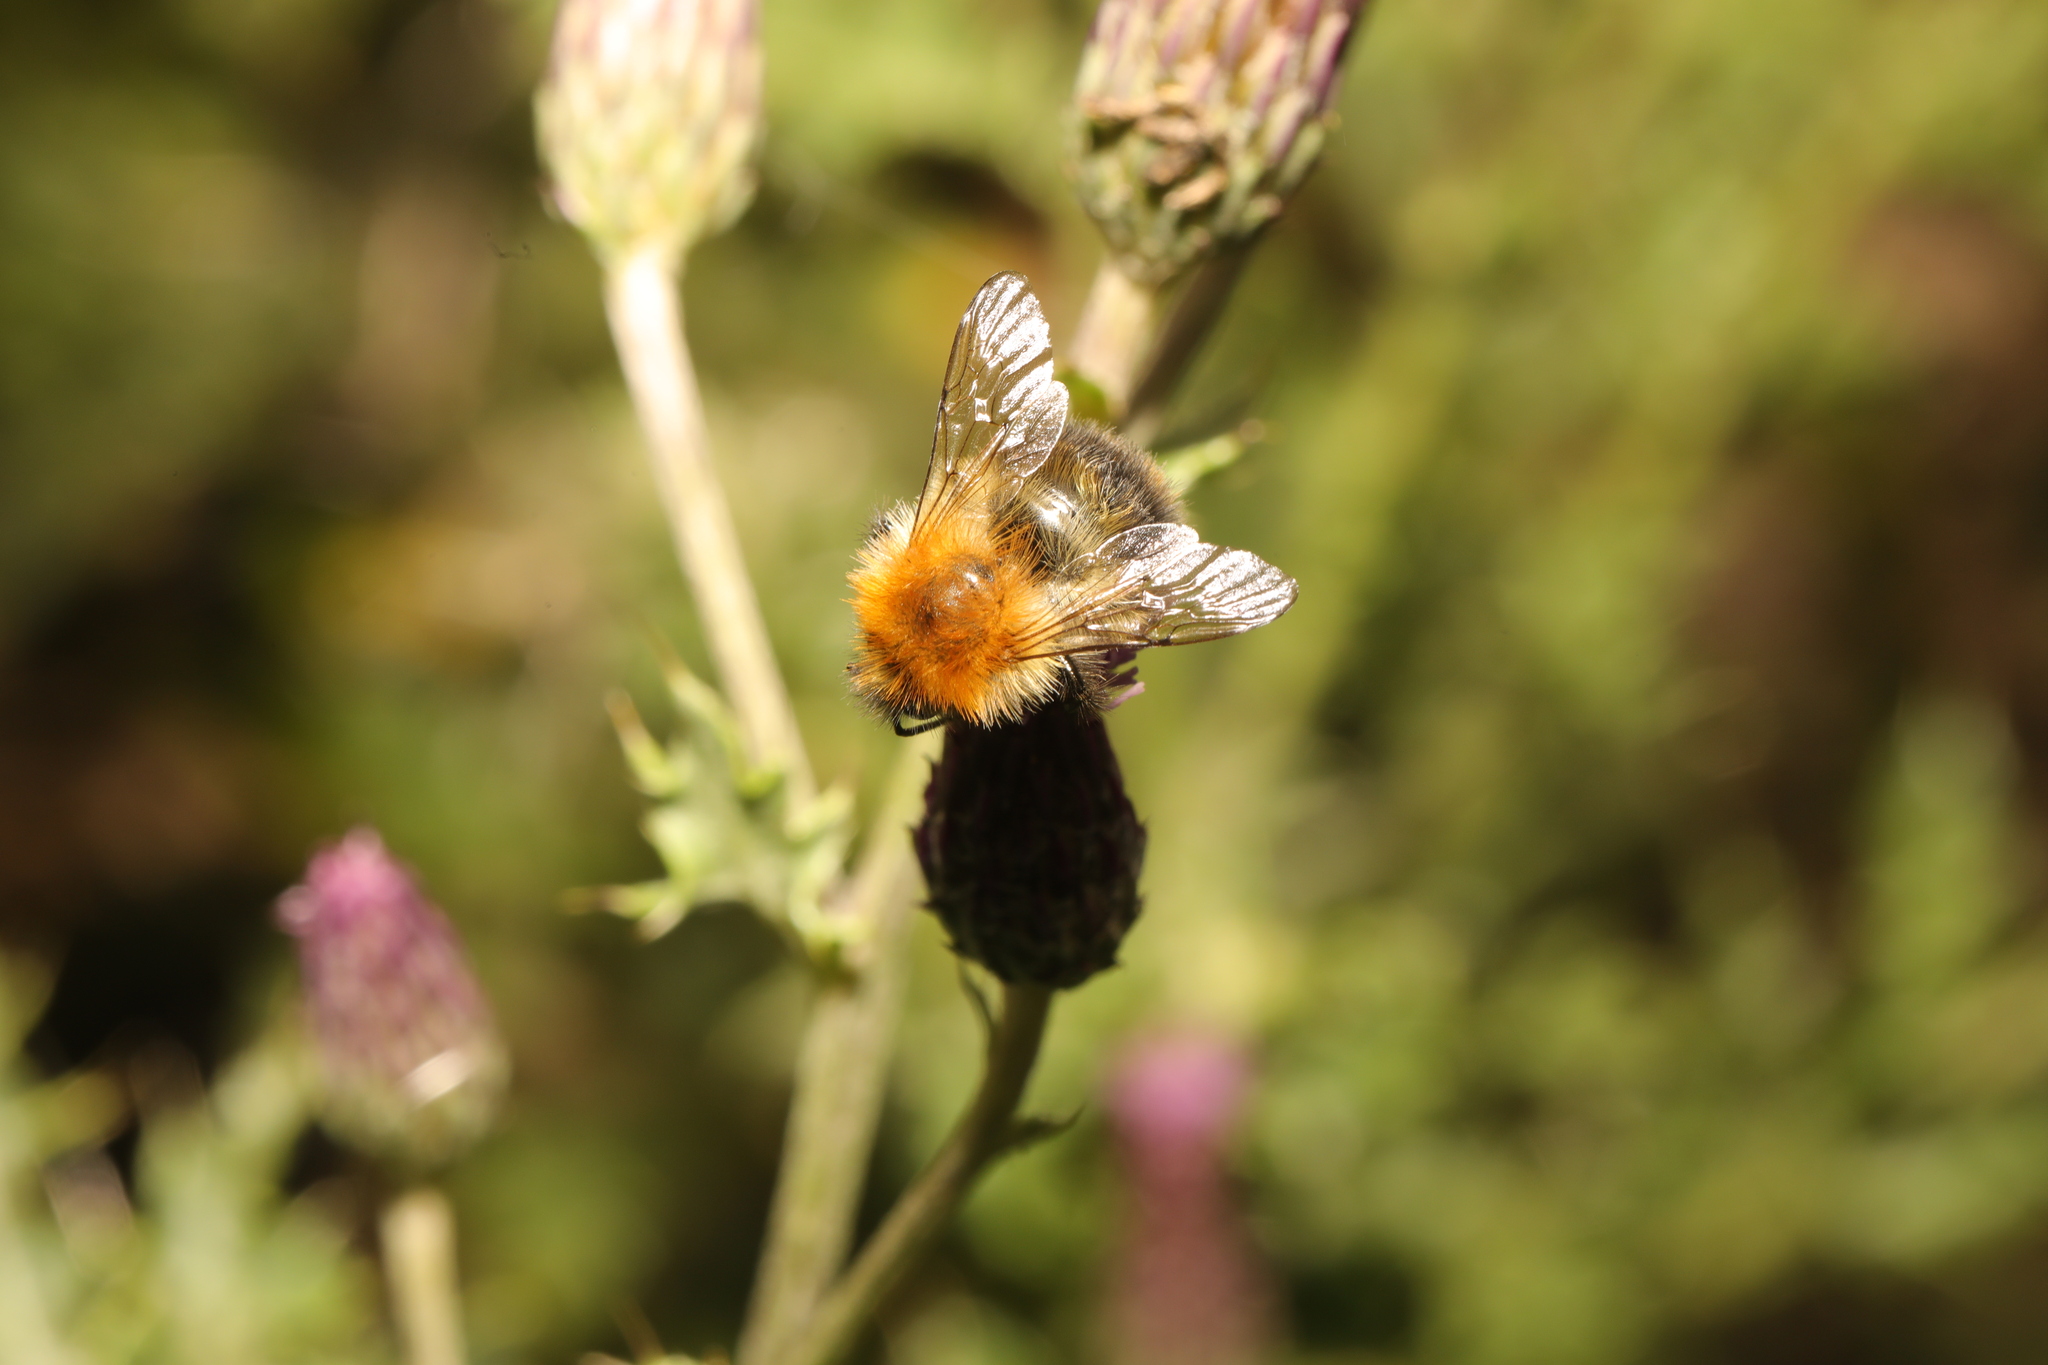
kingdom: Animalia
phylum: Arthropoda
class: Insecta
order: Hymenoptera
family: Apidae
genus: Bombus
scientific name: Bombus pascuorum
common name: Common carder bee
